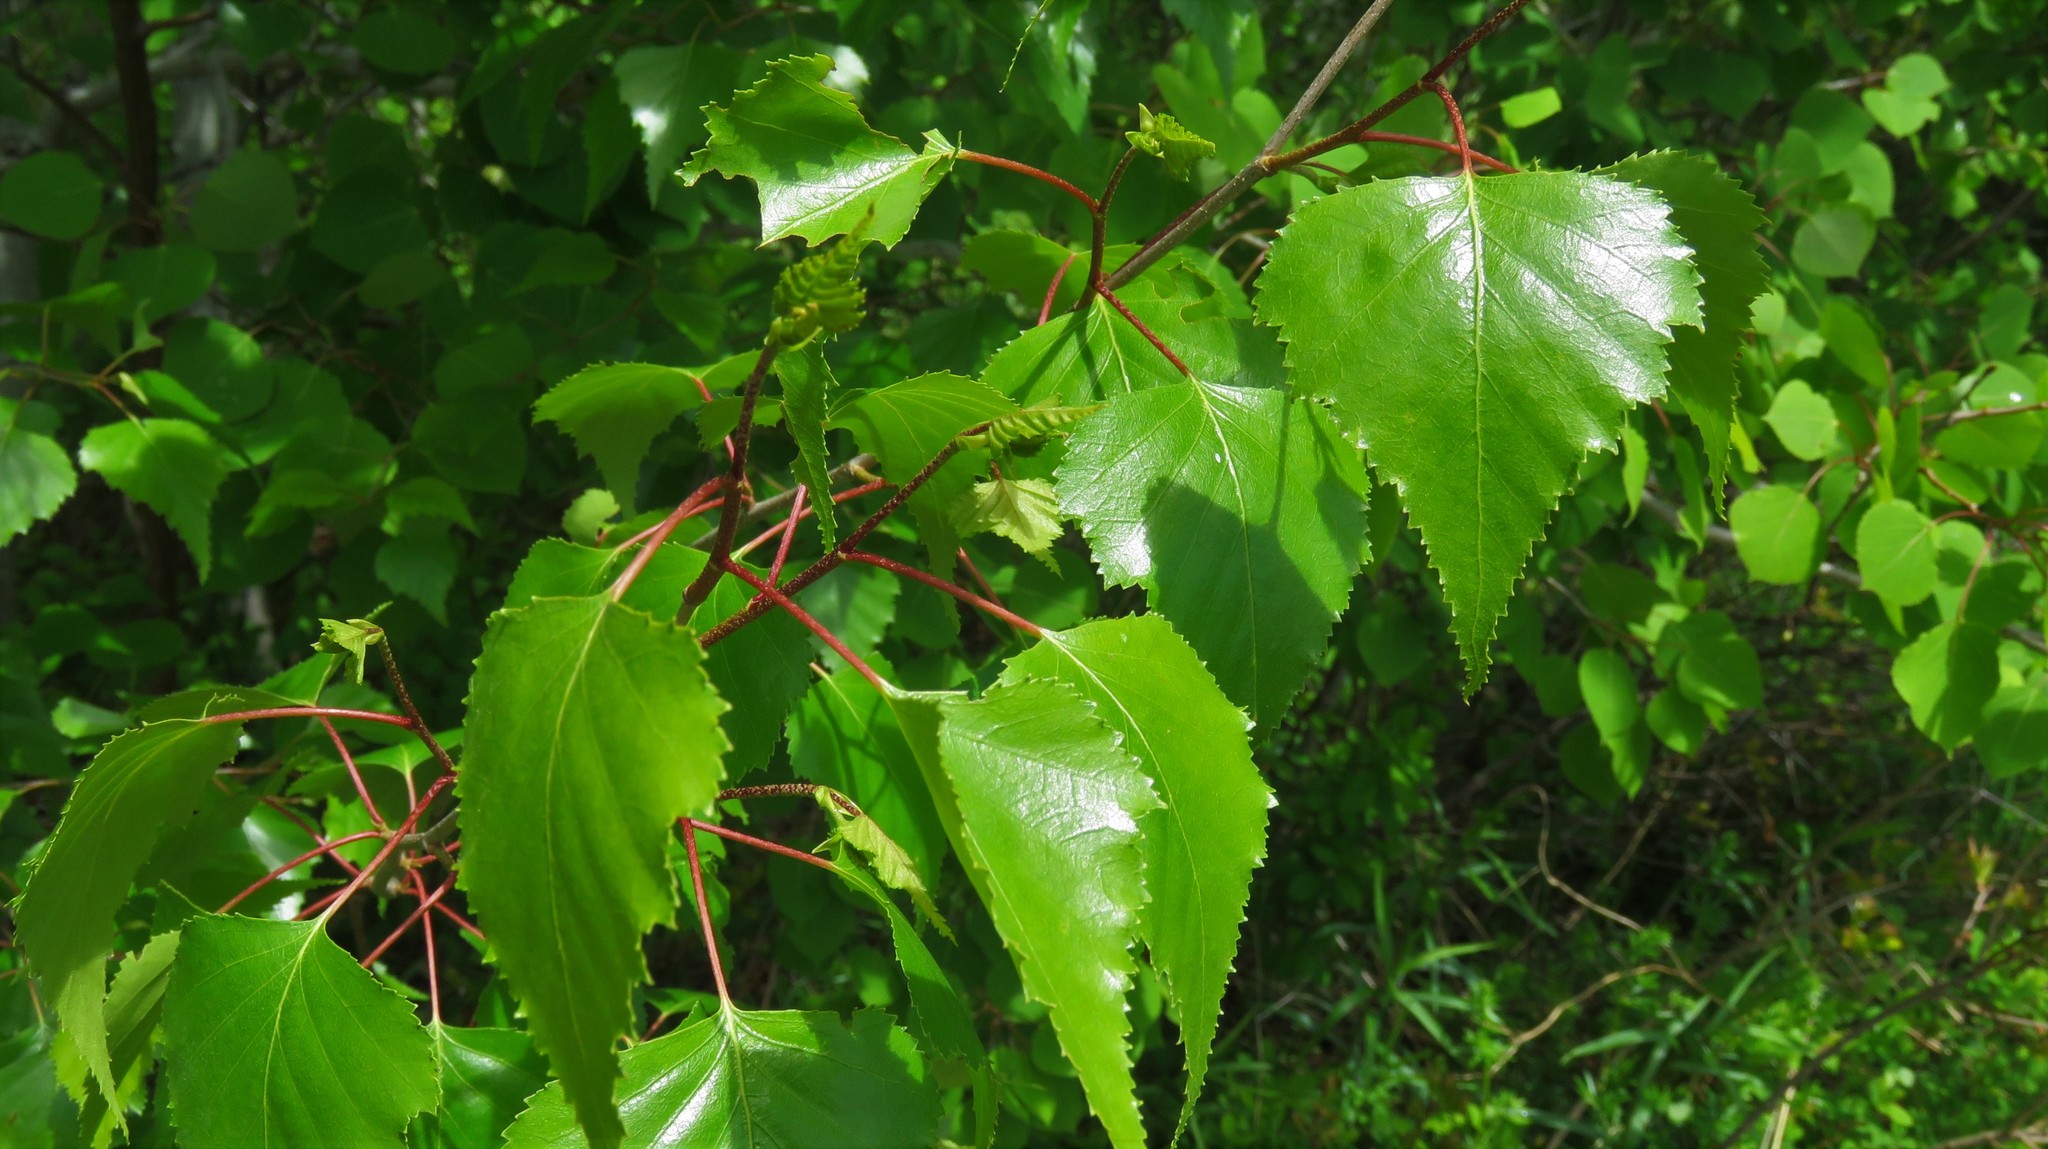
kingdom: Plantae
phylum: Tracheophyta
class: Magnoliopsida
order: Fagales
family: Betulaceae
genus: Betula
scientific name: Betula populifolia
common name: Fire birch
